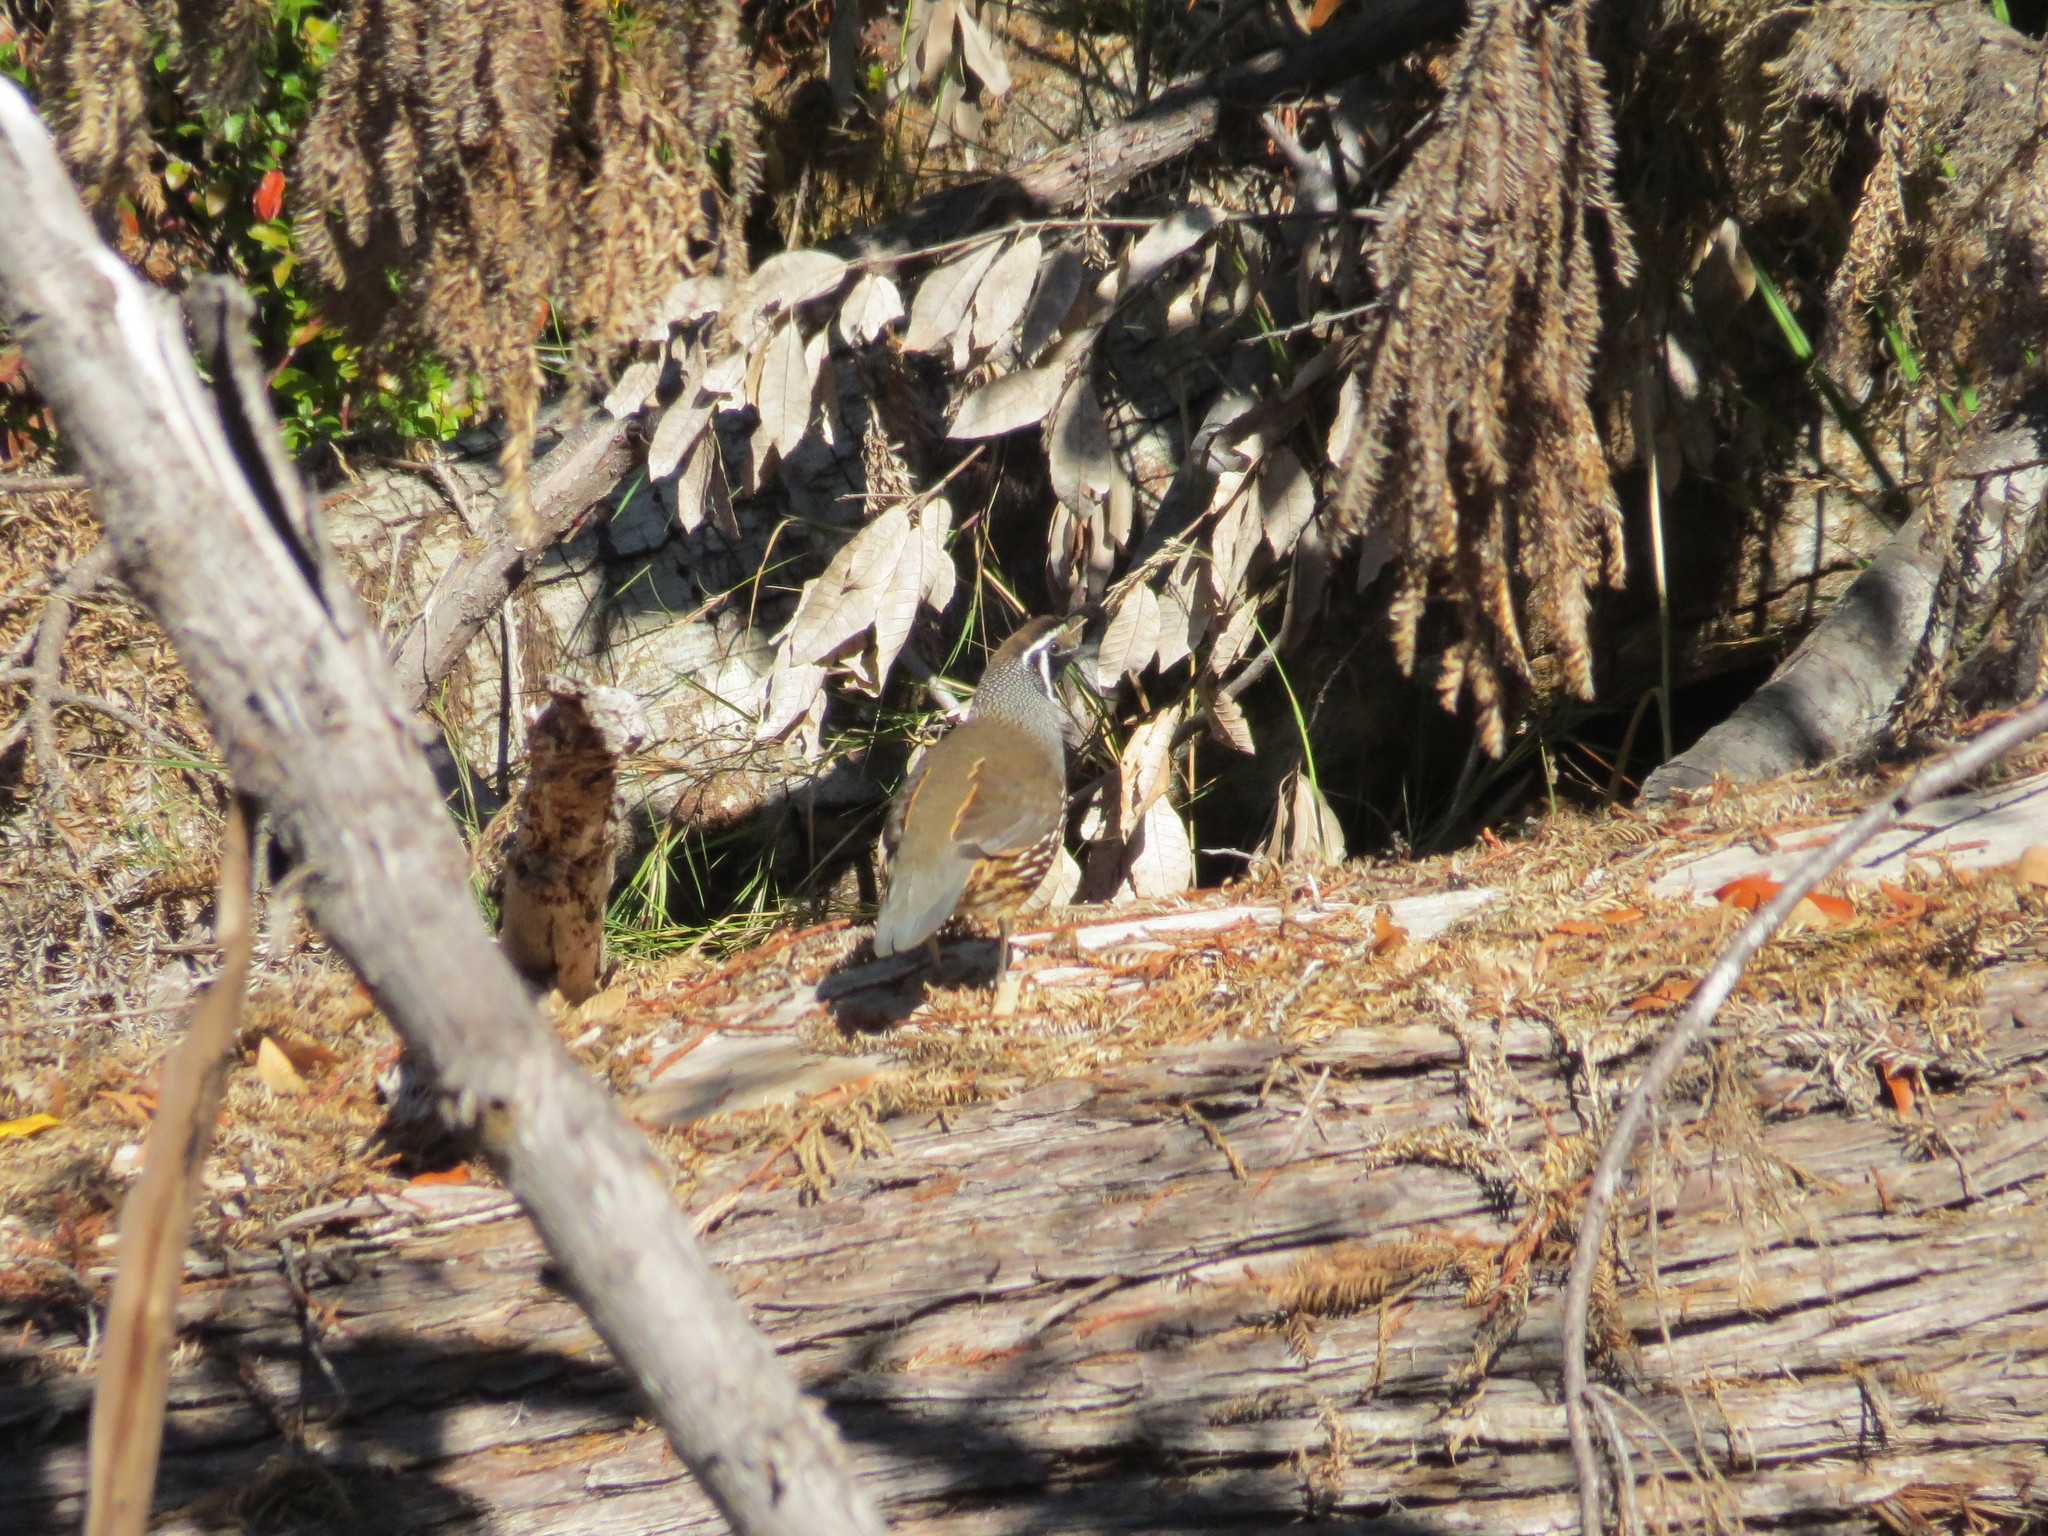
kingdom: Animalia
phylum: Chordata
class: Aves
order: Galliformes
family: Odontophoridae
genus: Callipepla
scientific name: Callipepla californica
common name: California quail
